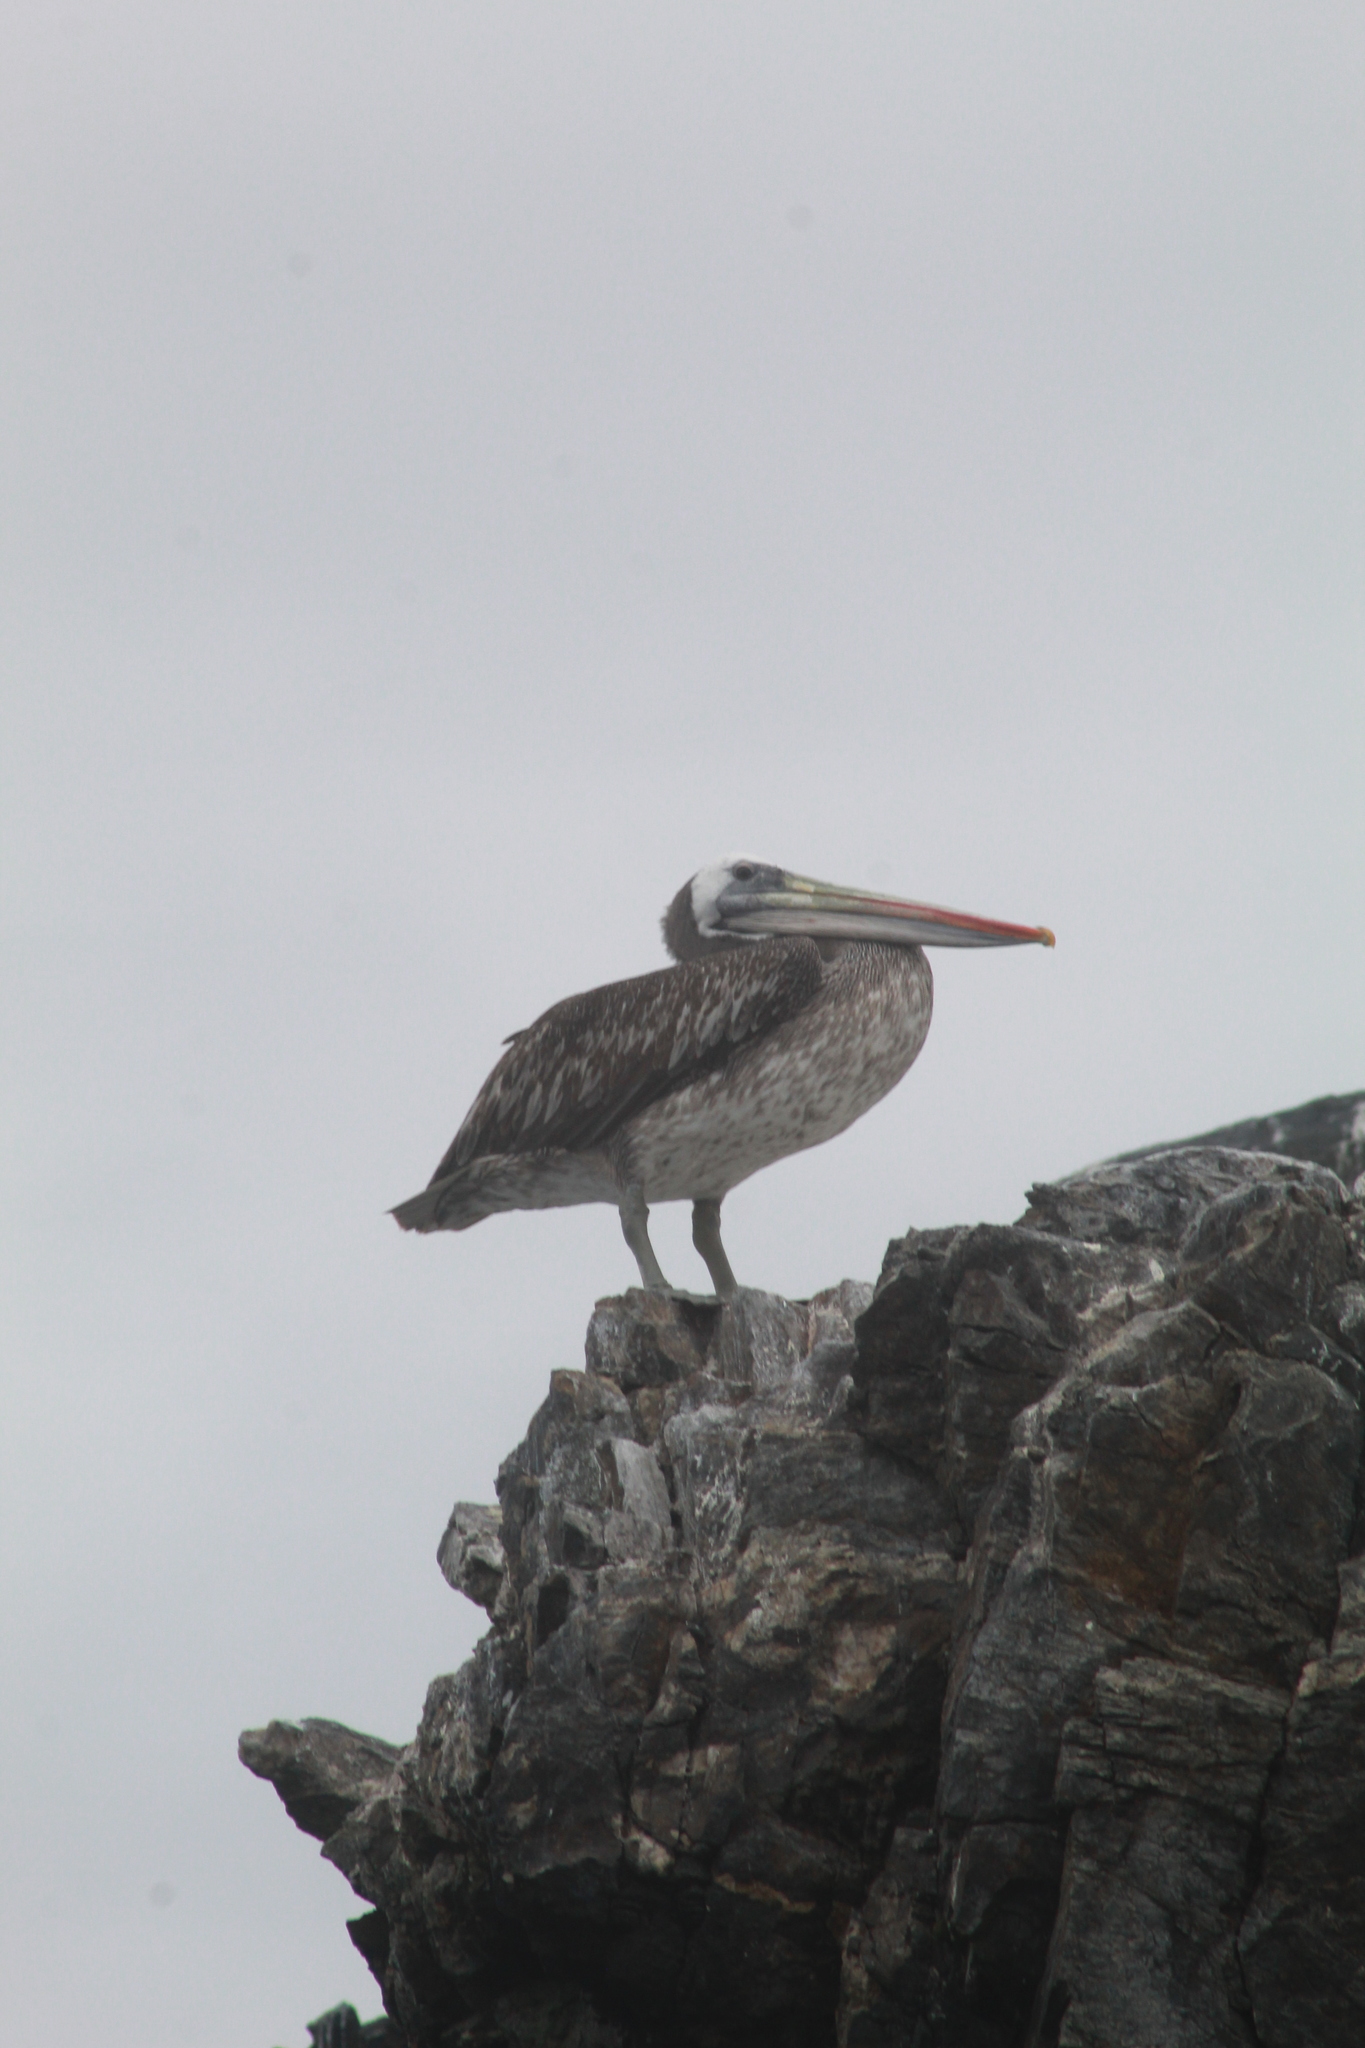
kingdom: Animalia
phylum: Chordata
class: Aves
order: Pelecaniformes
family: Pelecanidae
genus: Pelecanus
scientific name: Pelecanus thagus
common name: Peruvian pelican
